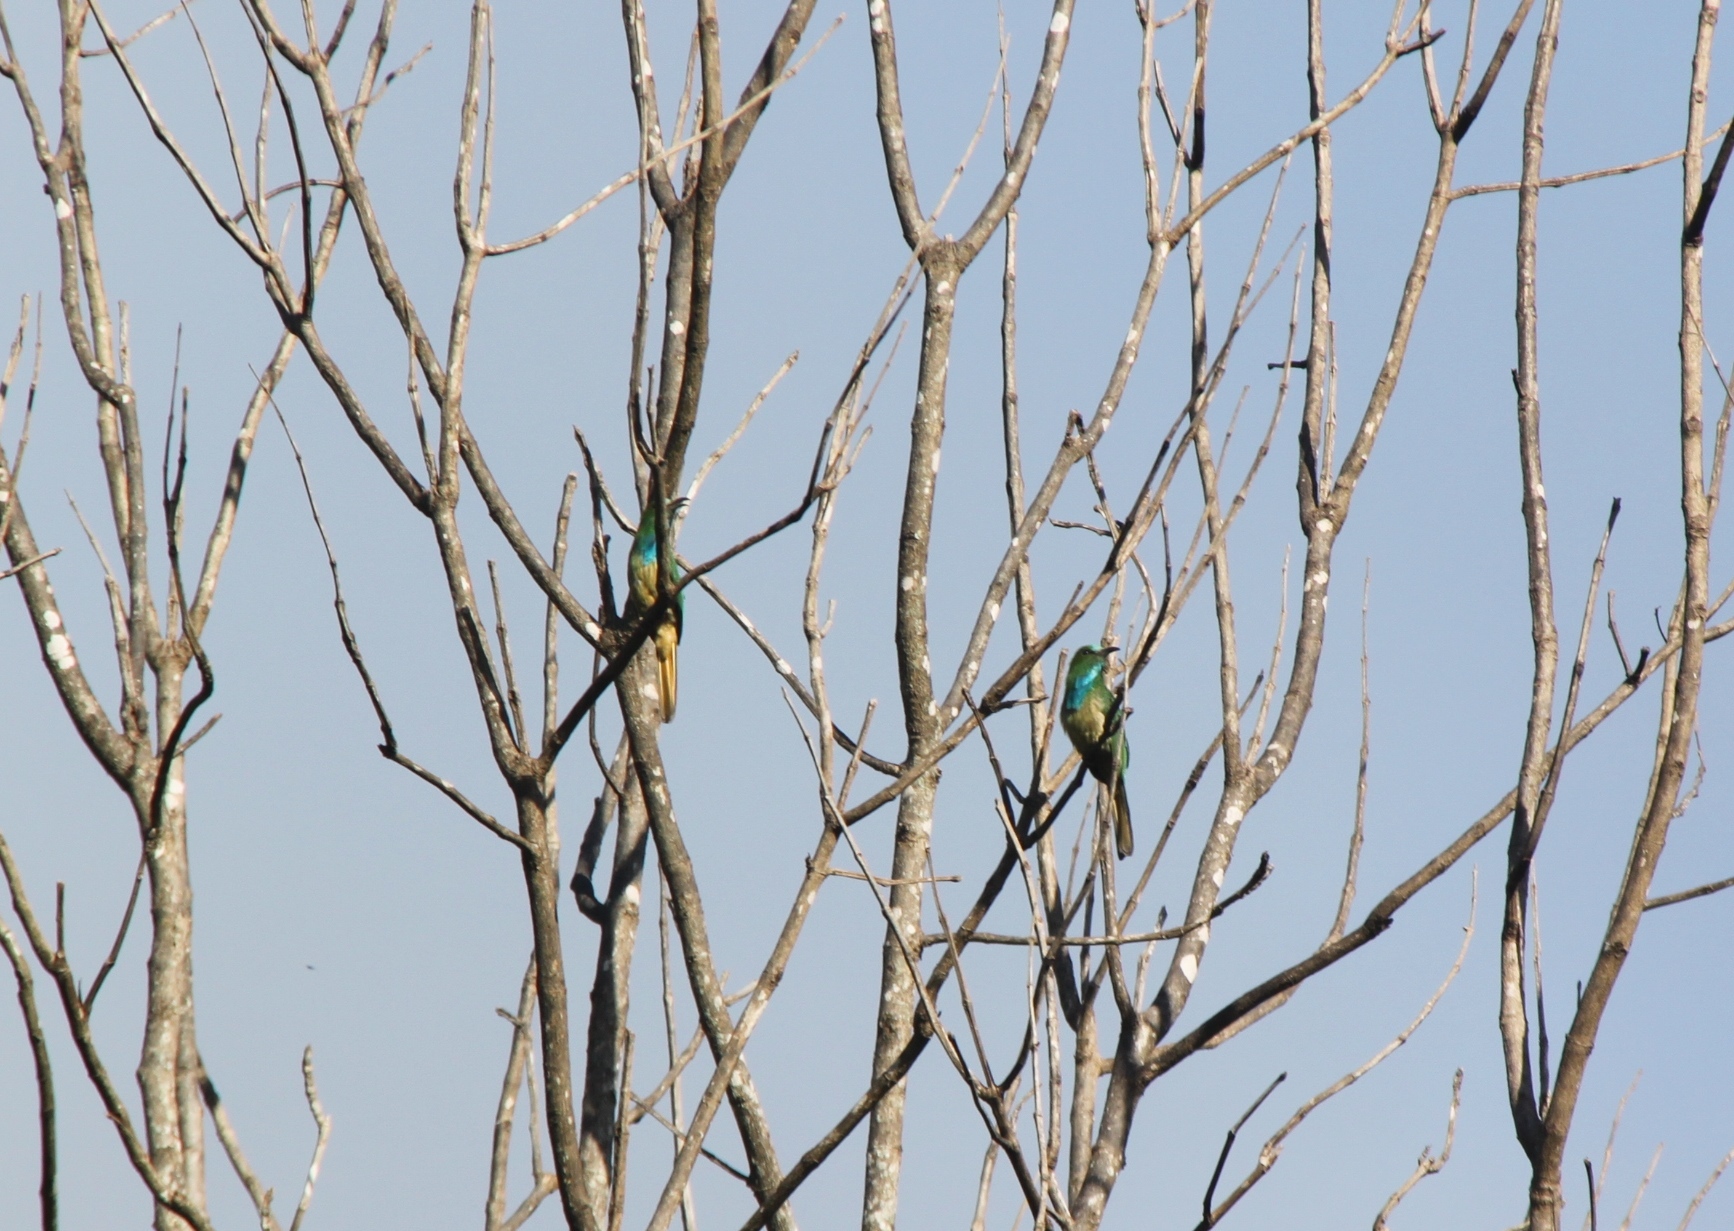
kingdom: Animalia
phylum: Chordata
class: Aves
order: Coraciiformes
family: Meropidae
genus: Nyctyornis
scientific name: Nyctyornis athertoni
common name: Blue-bearded bee-eater
